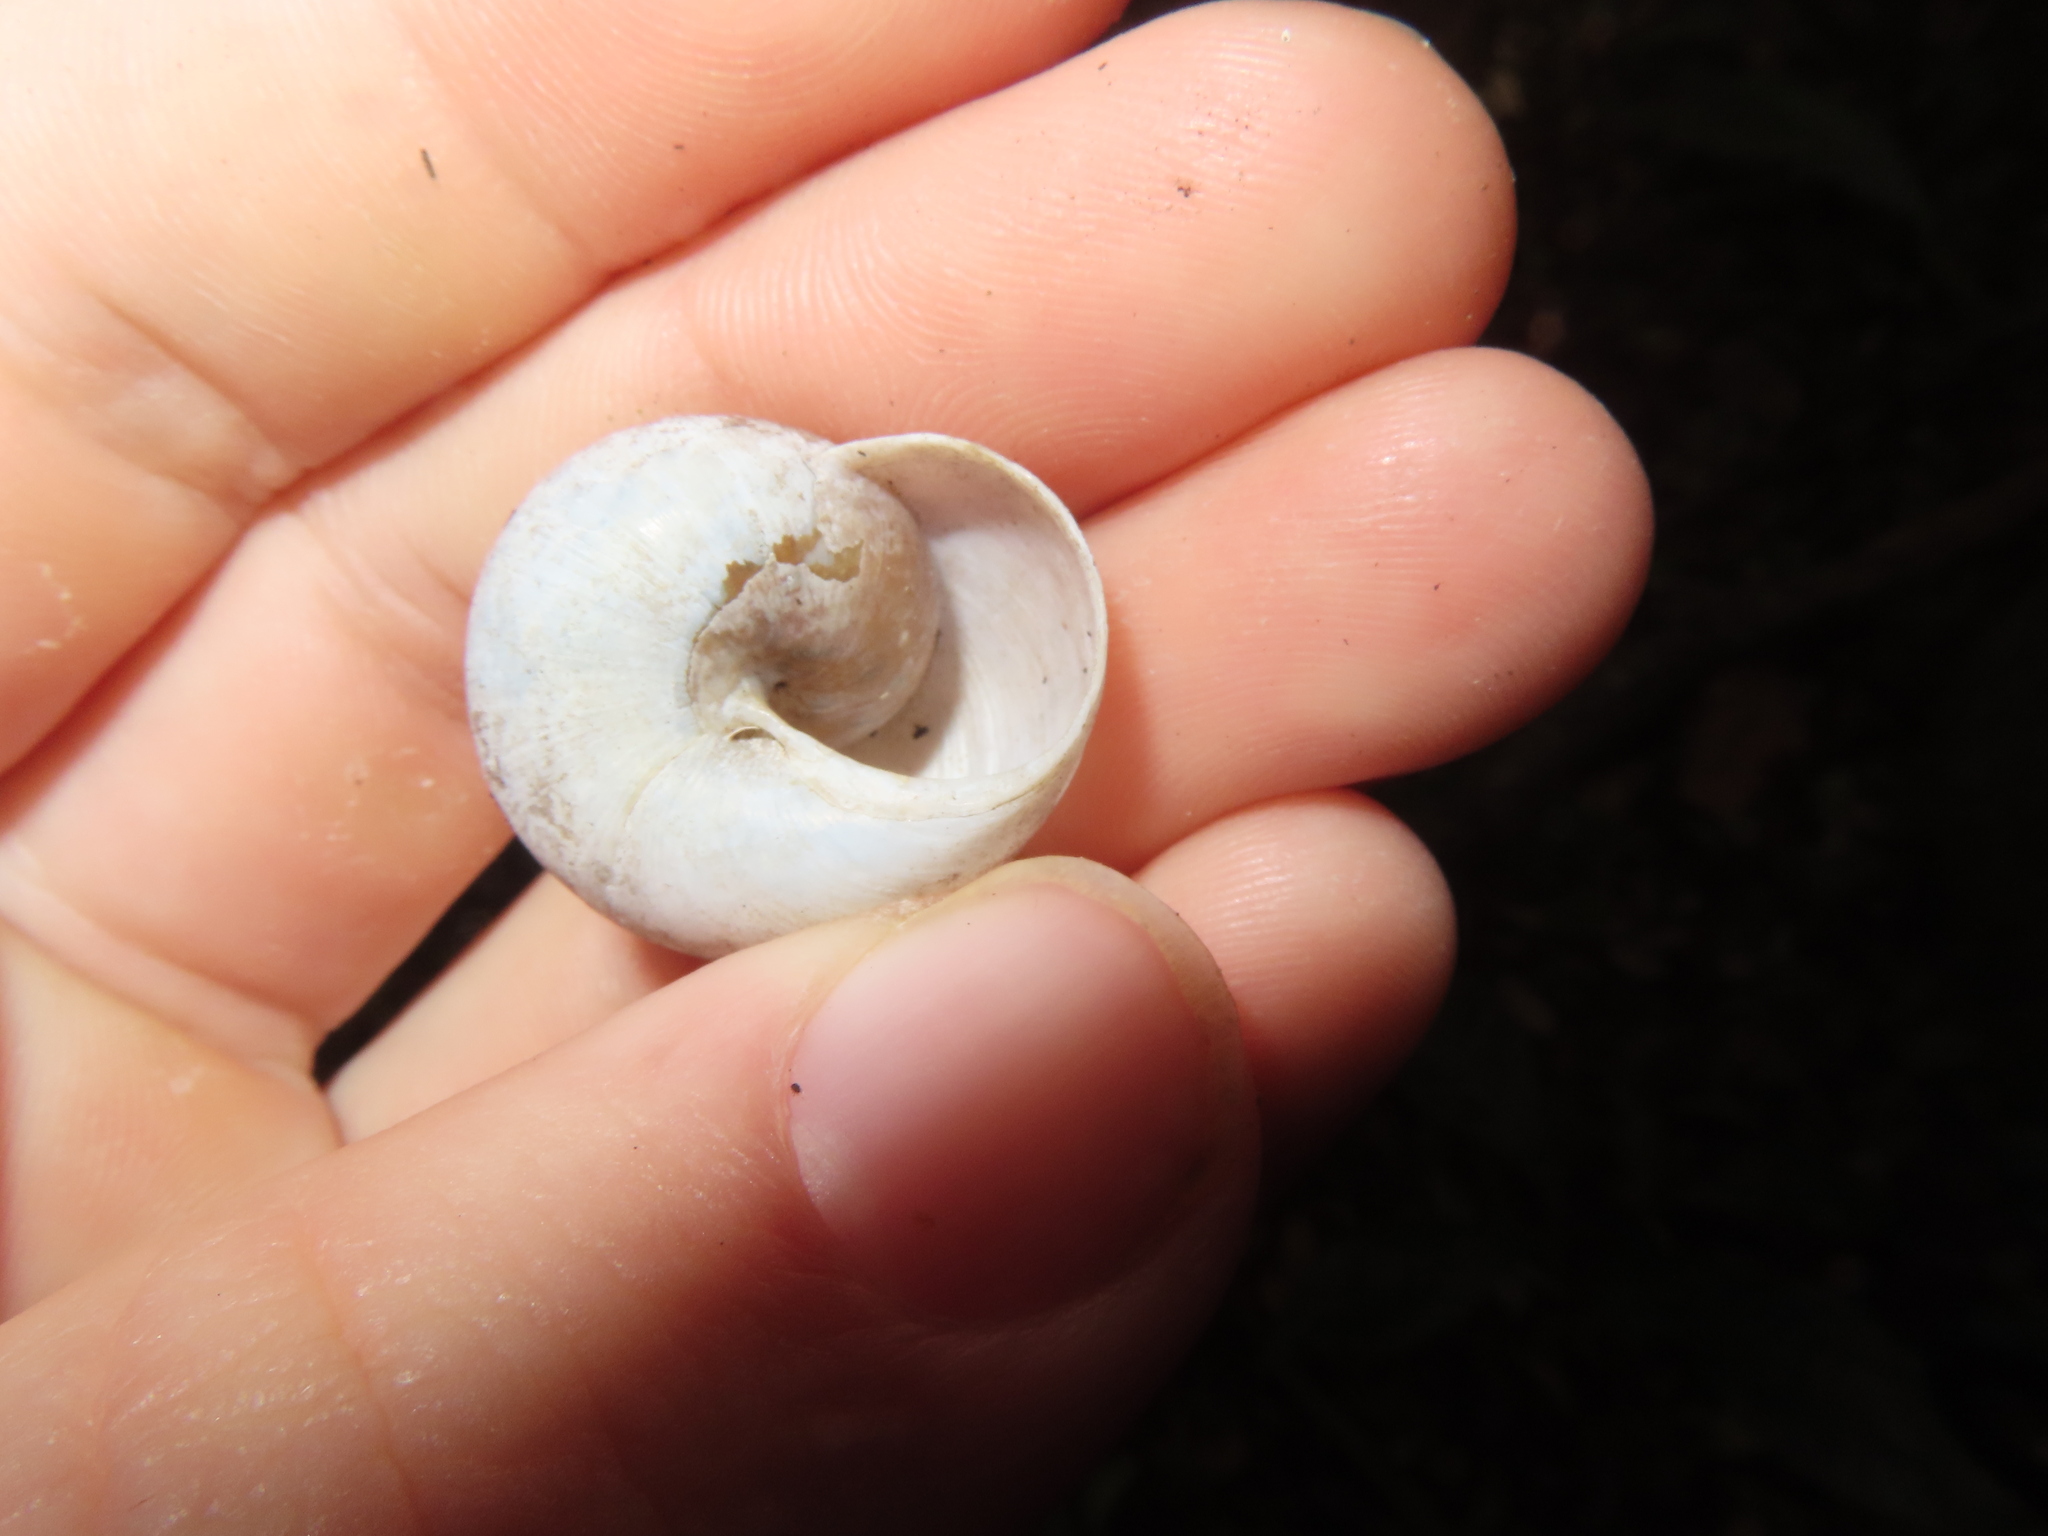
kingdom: Animalia
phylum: Mollusca
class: Gastropoda
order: Stylommatophora
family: Zachrysiidae
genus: Zachrysia
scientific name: Zachrysia provisoria
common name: Garden zachrysia
